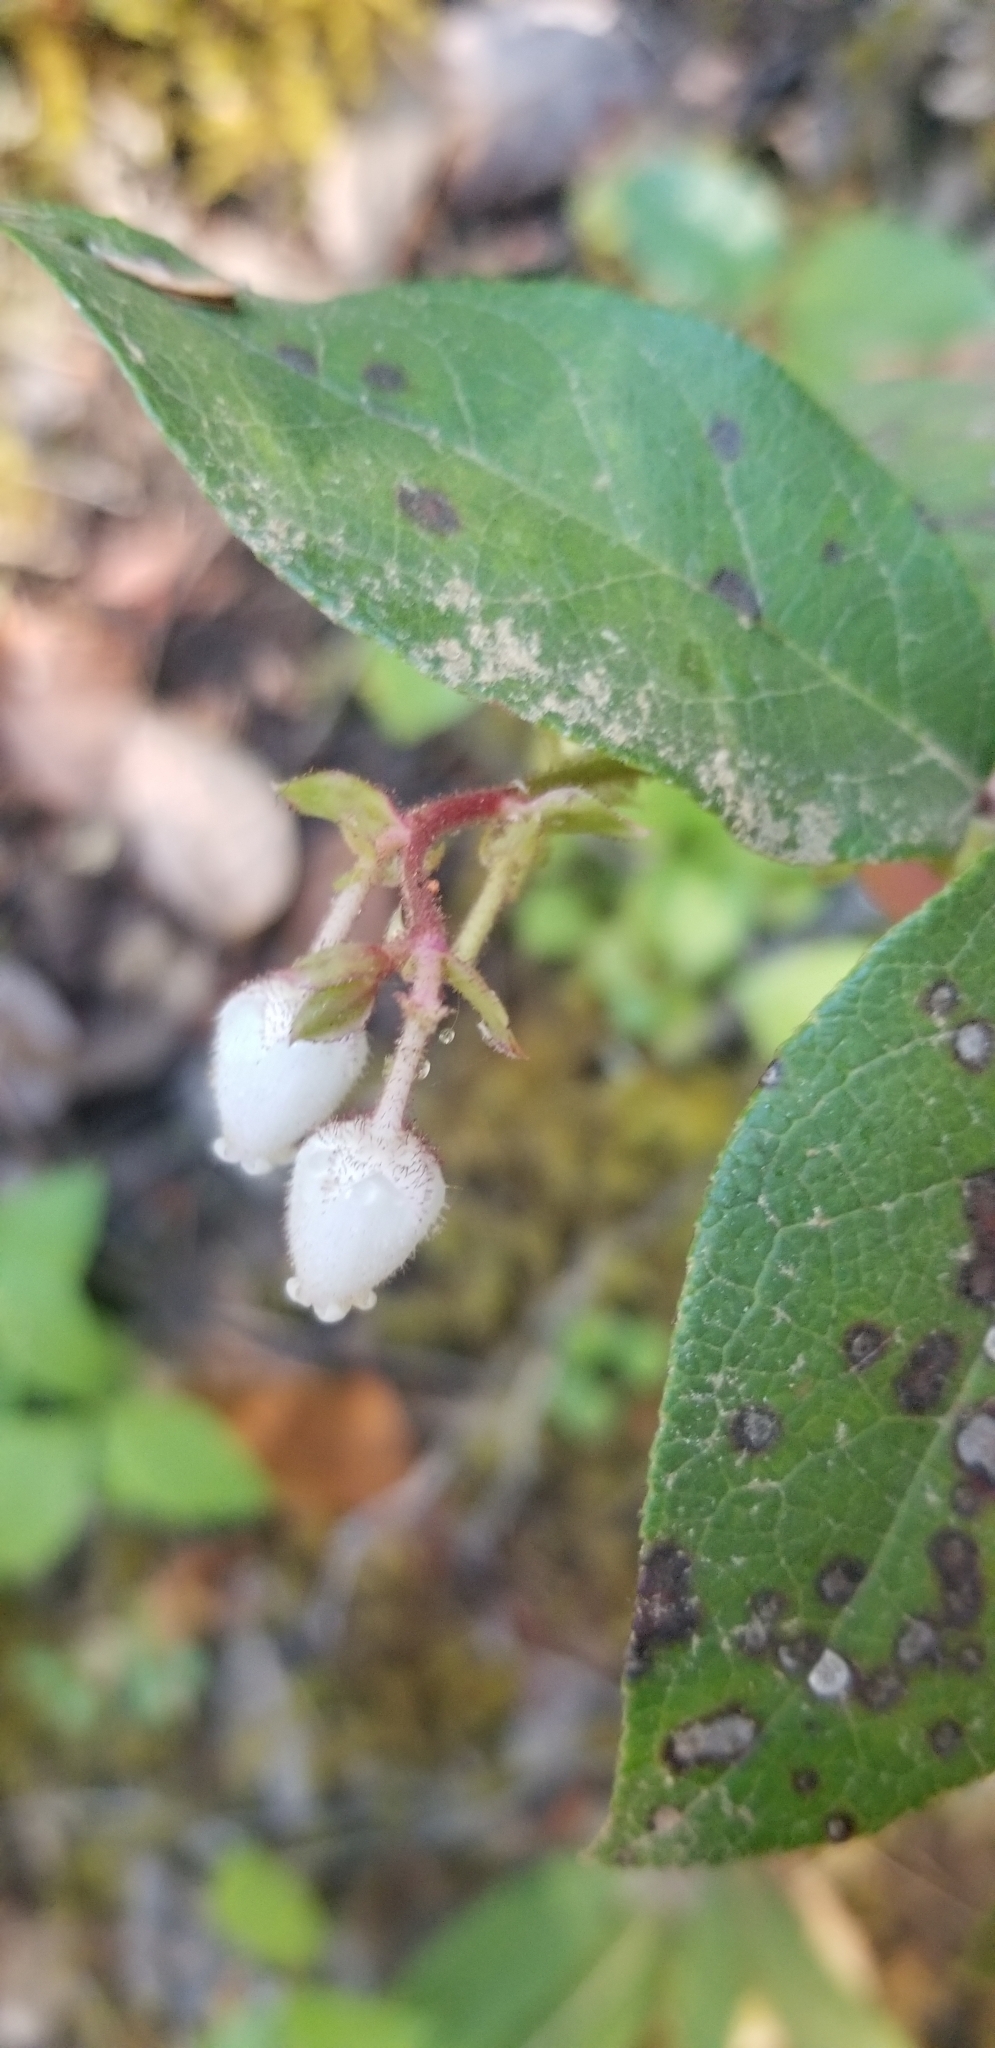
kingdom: Plantae
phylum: Tracheophyta
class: Magnoliopsida
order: Ericales
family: Ericaceae
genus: Gaultheria
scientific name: Gaultheria shallon
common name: Shallon
